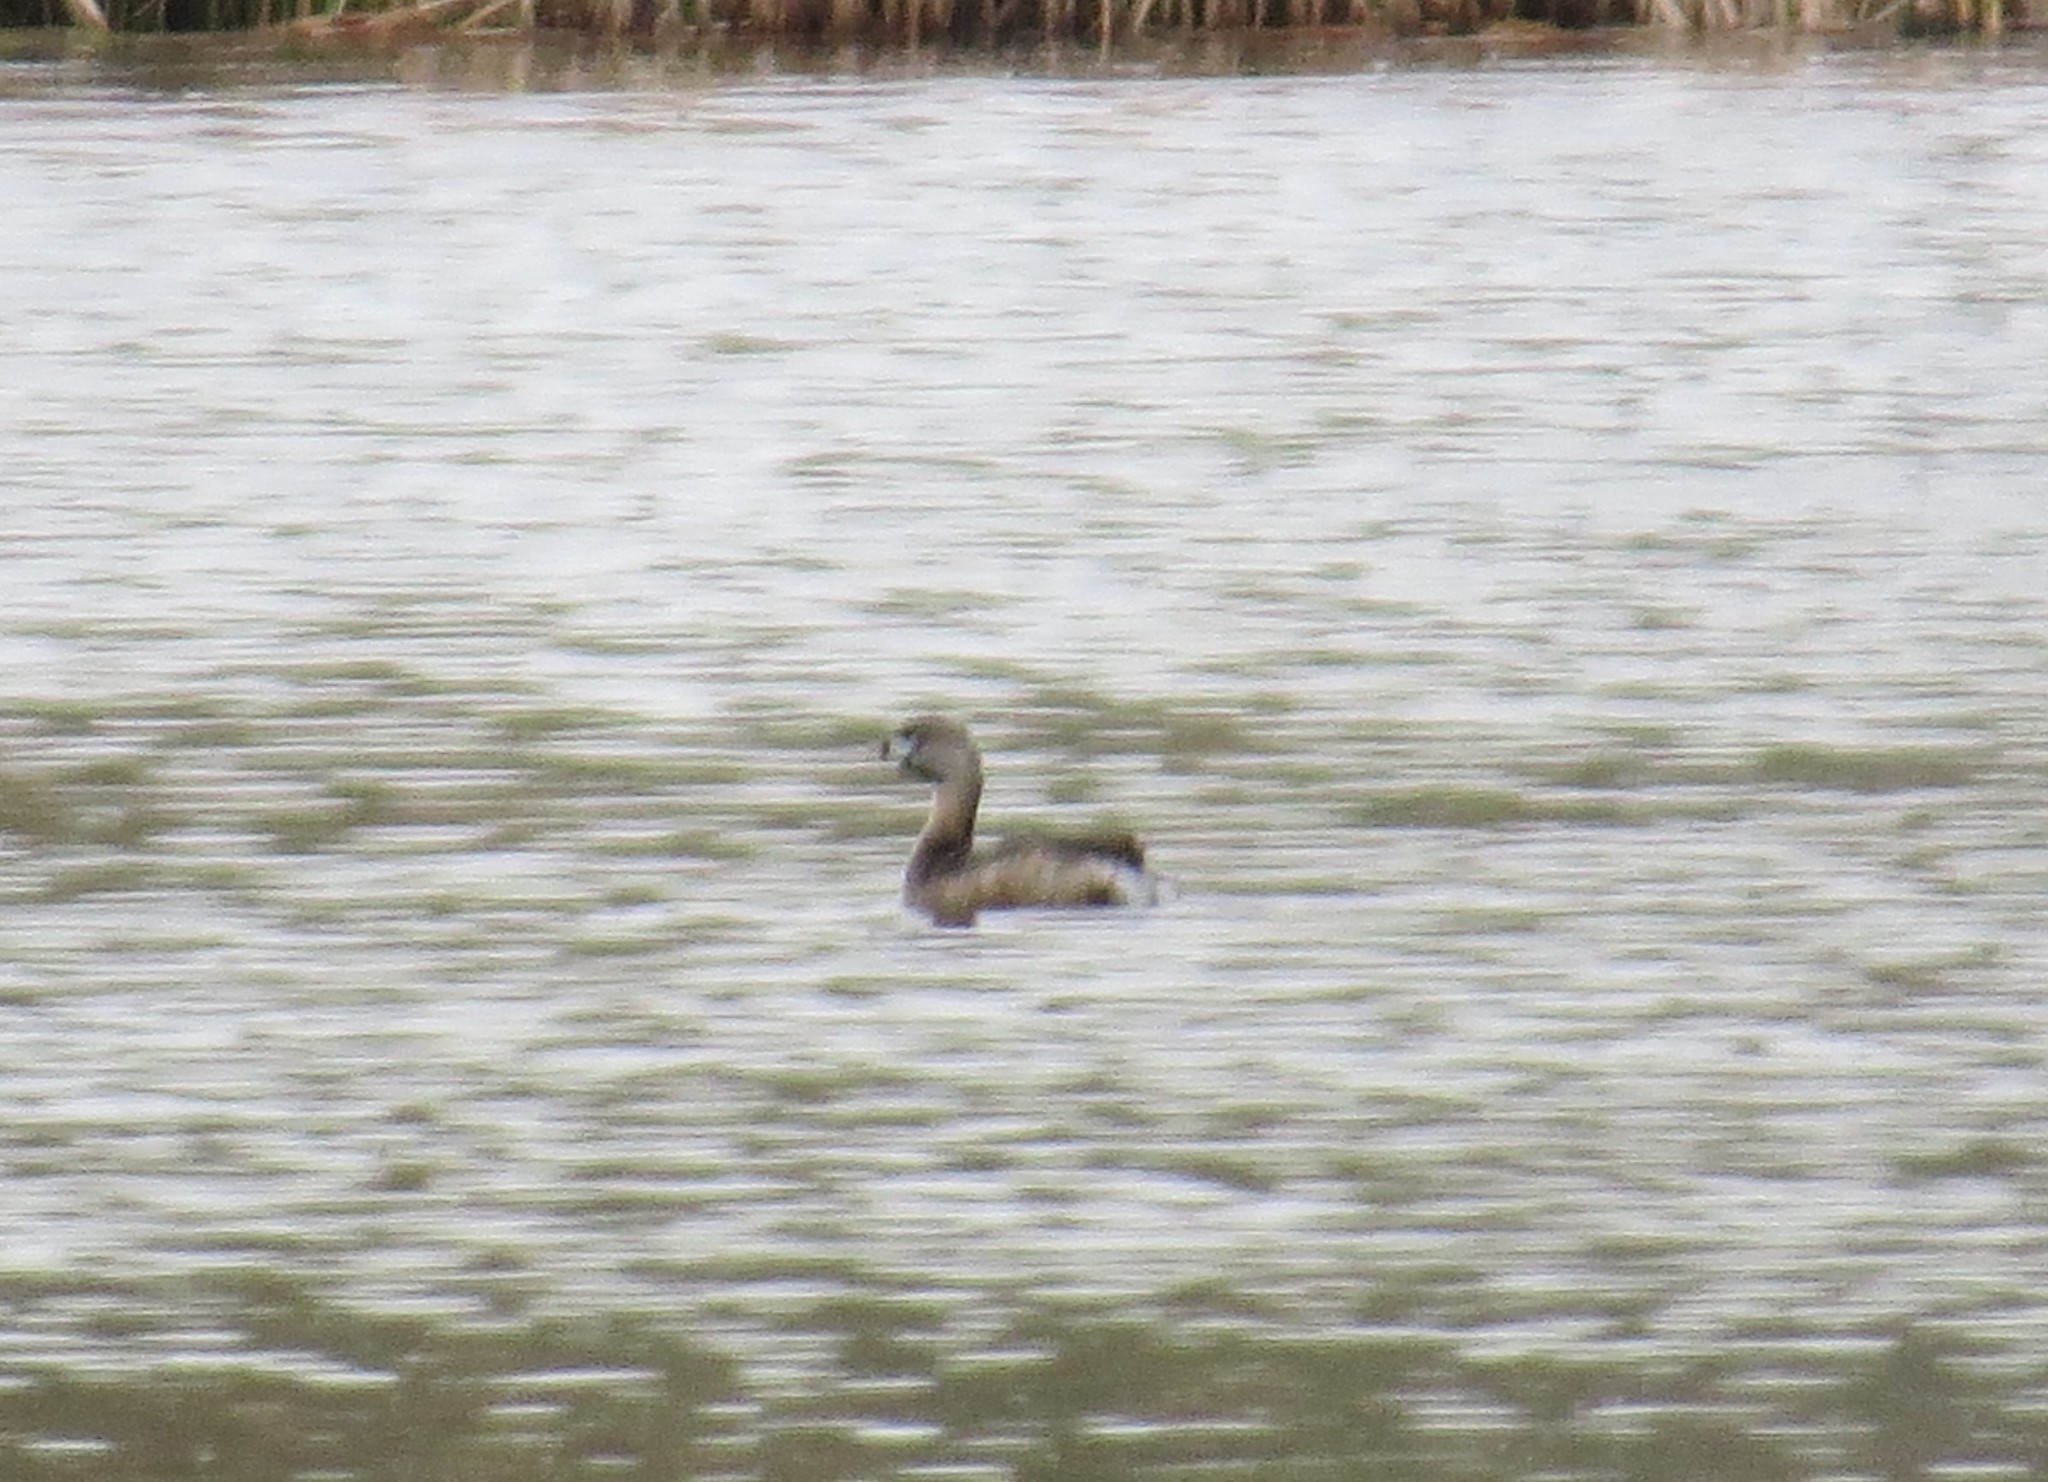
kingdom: Animalia
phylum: Chordata
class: Aves
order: Podicipediformes
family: Podicipedidae
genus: Podilymbus
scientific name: Podilymbus podiceps
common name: Pied-billed grebe
